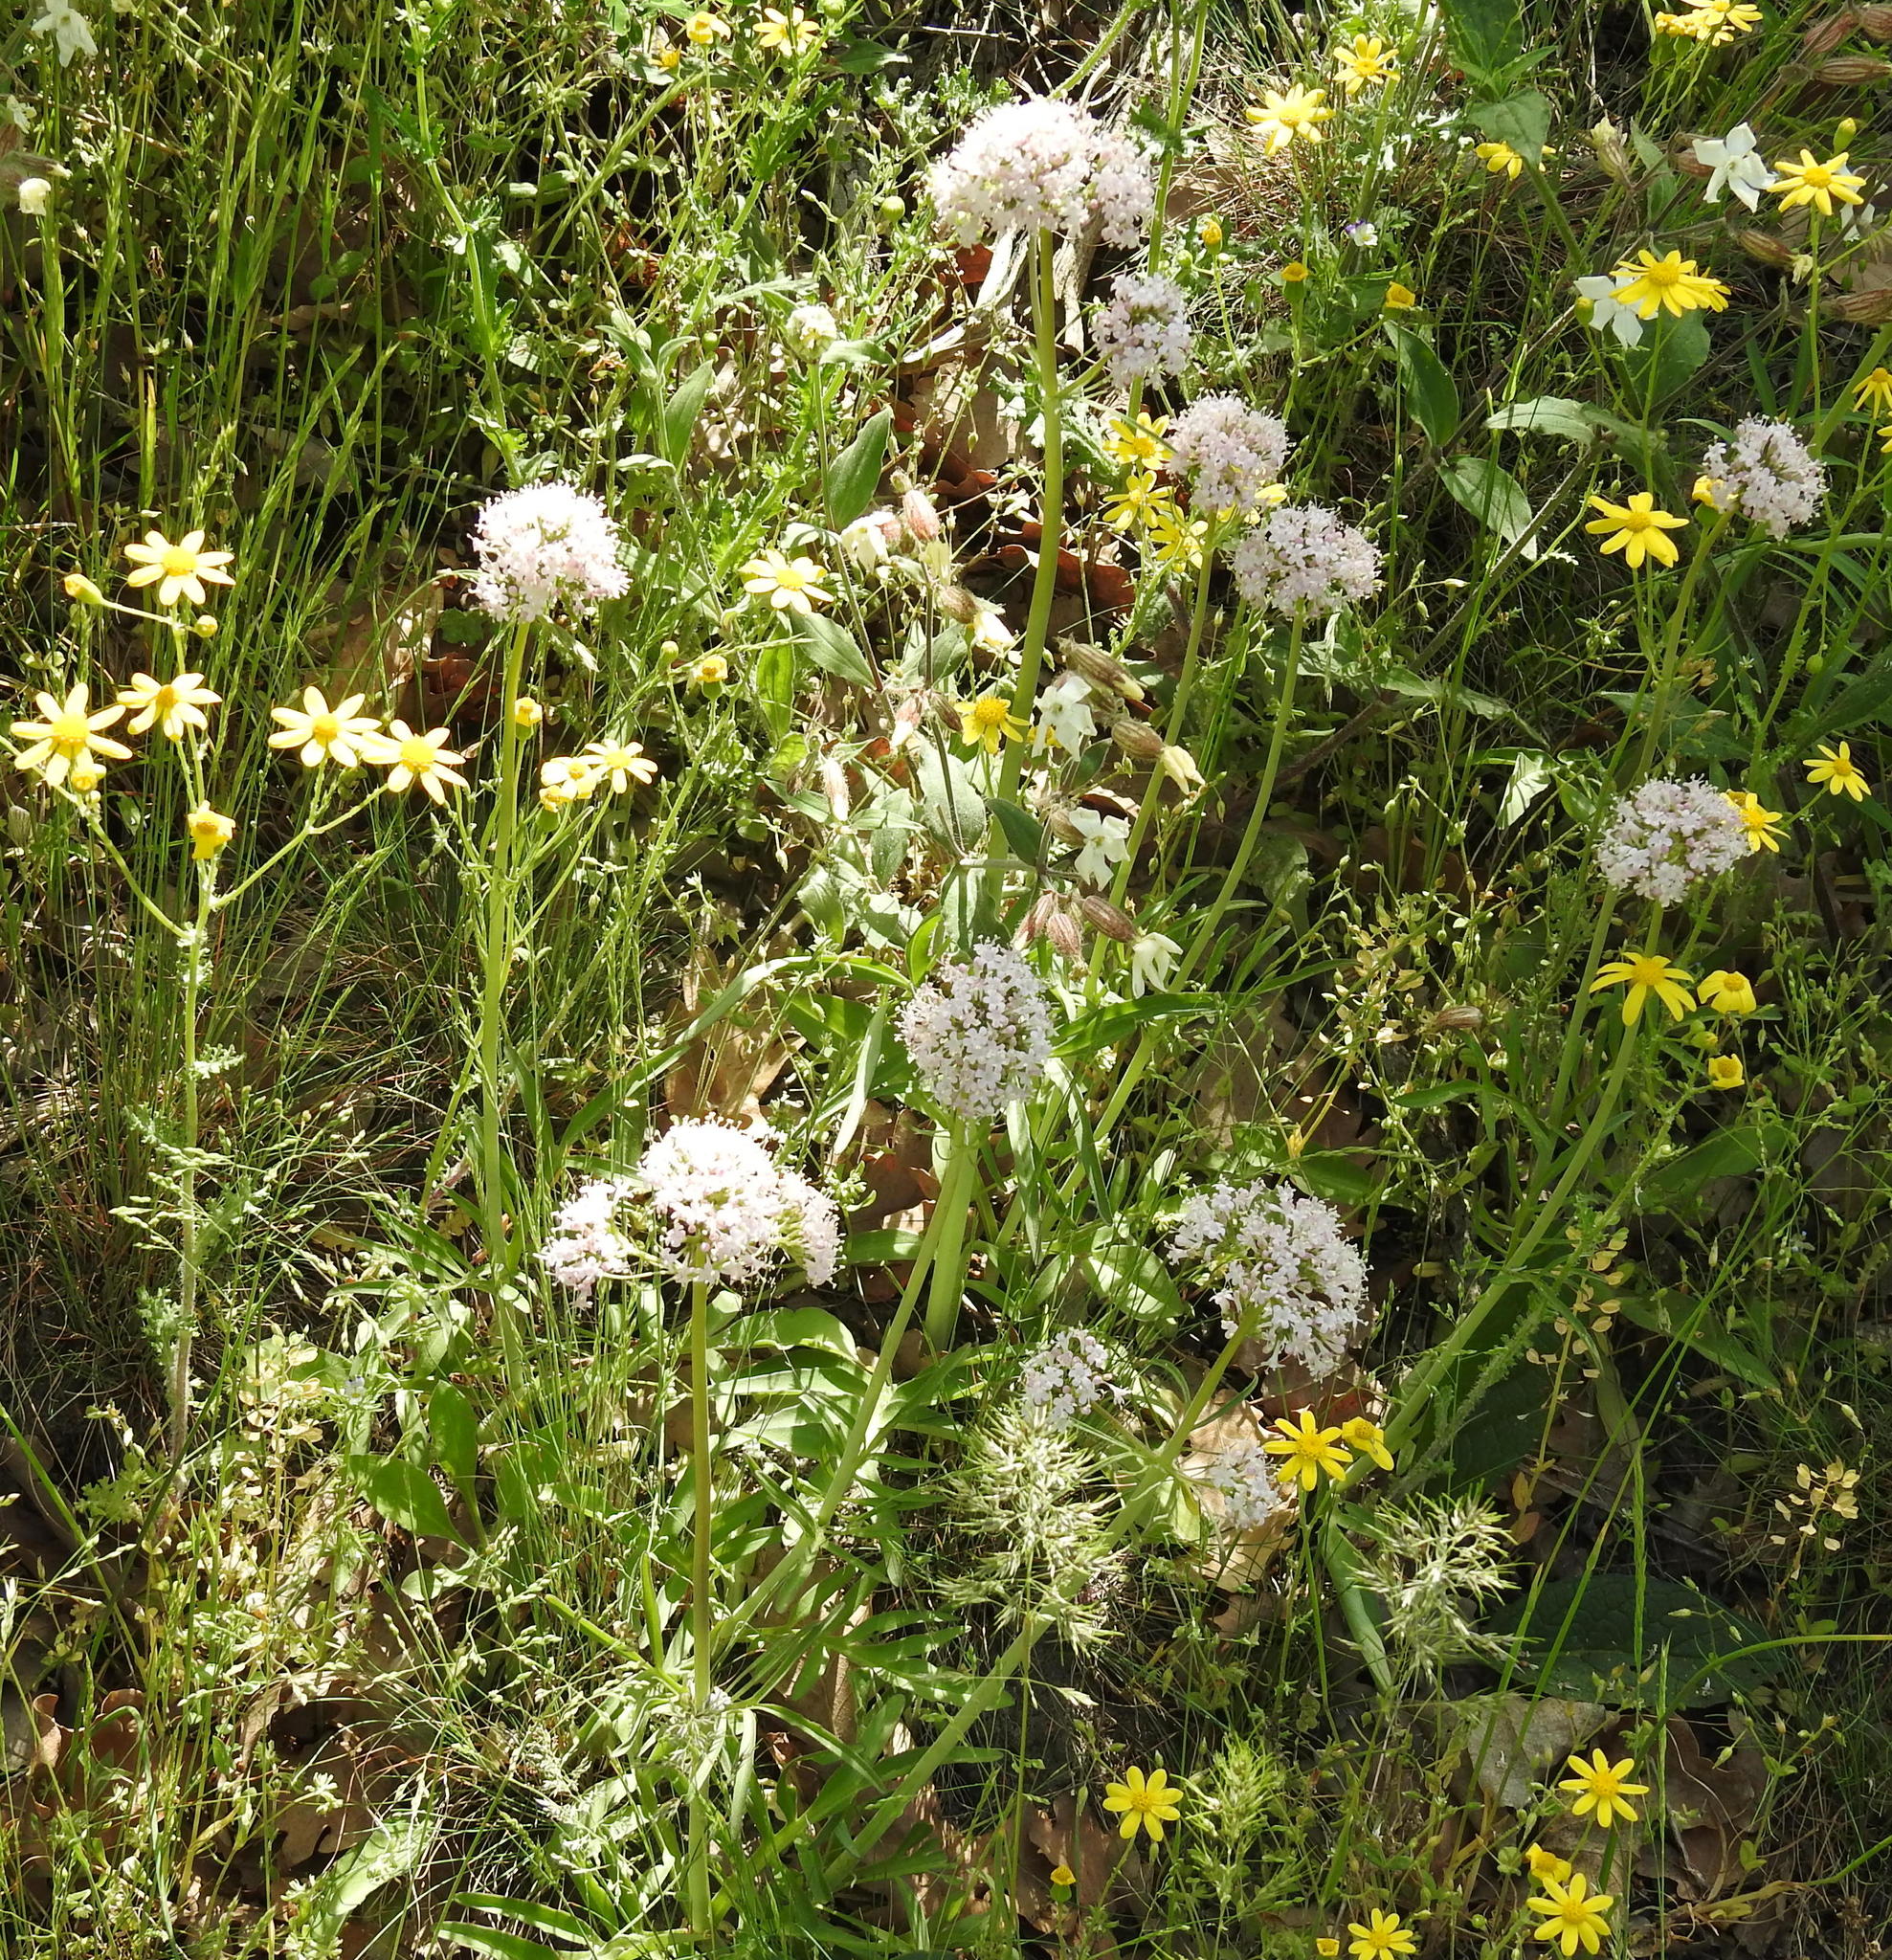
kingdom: Plantae
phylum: Tracheophyta
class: Magnoliopsida
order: Dipsacales
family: Caprifoliaceae
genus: Valeriana
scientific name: Valeriana tuberosa
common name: Tuberous valerian
